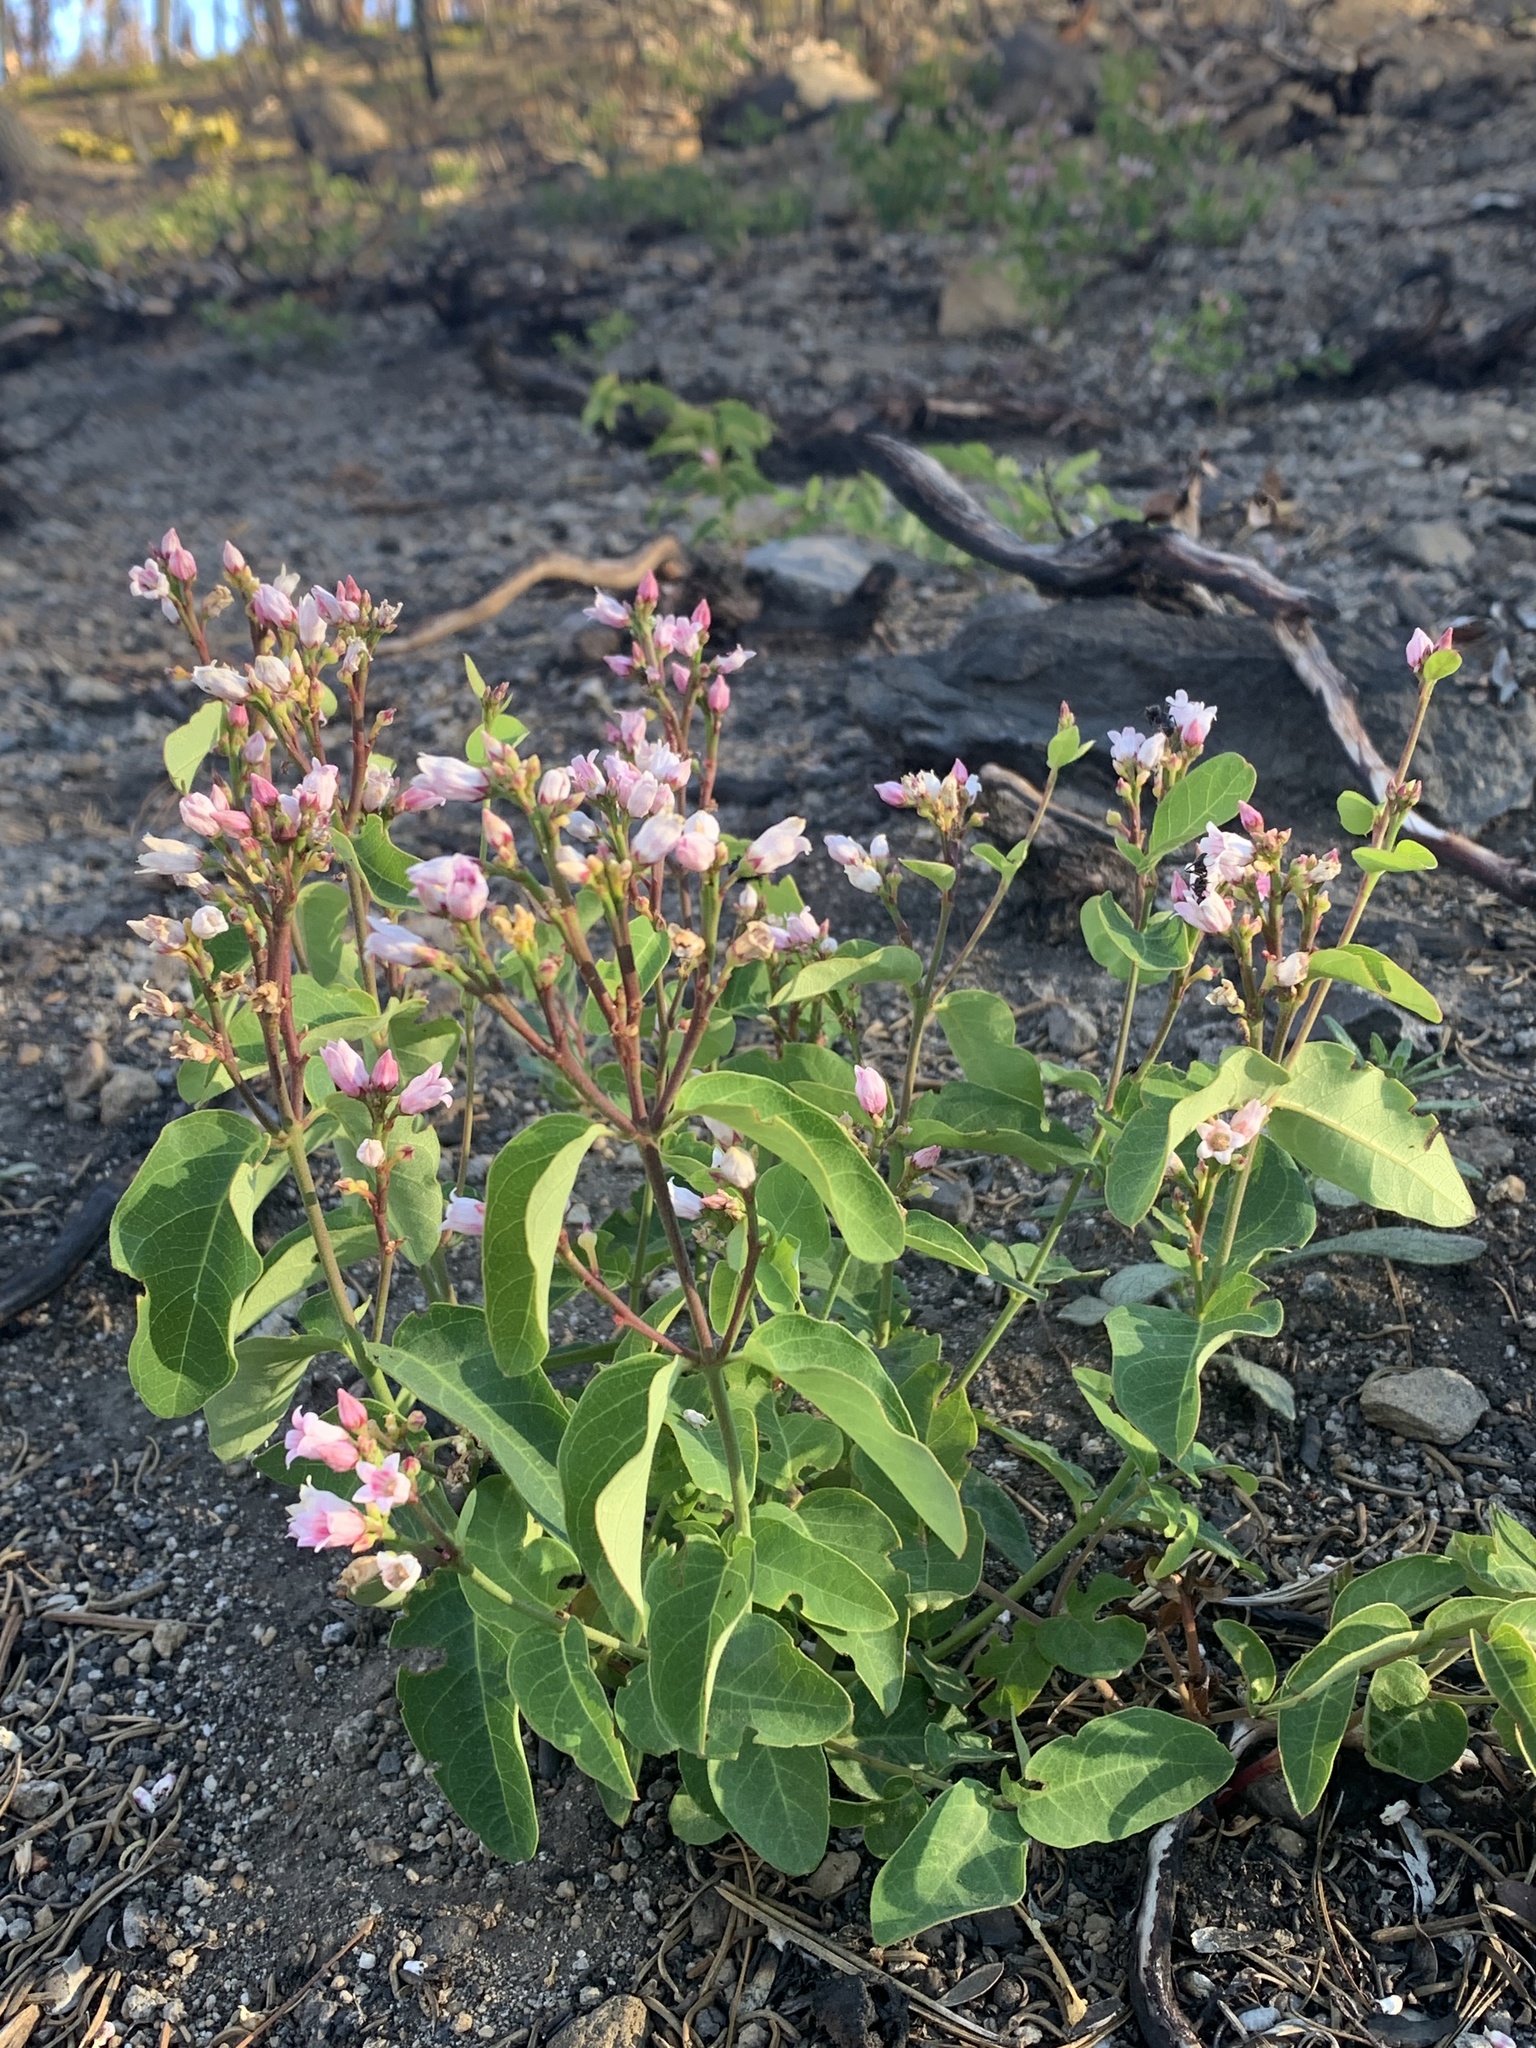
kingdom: Plantae
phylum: Tracheophyta
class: Magnoliopsida
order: Gentianales
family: Apocynaceae
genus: Apocynum
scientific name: Apocynum androsaemifolium
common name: Spreading dogbane
